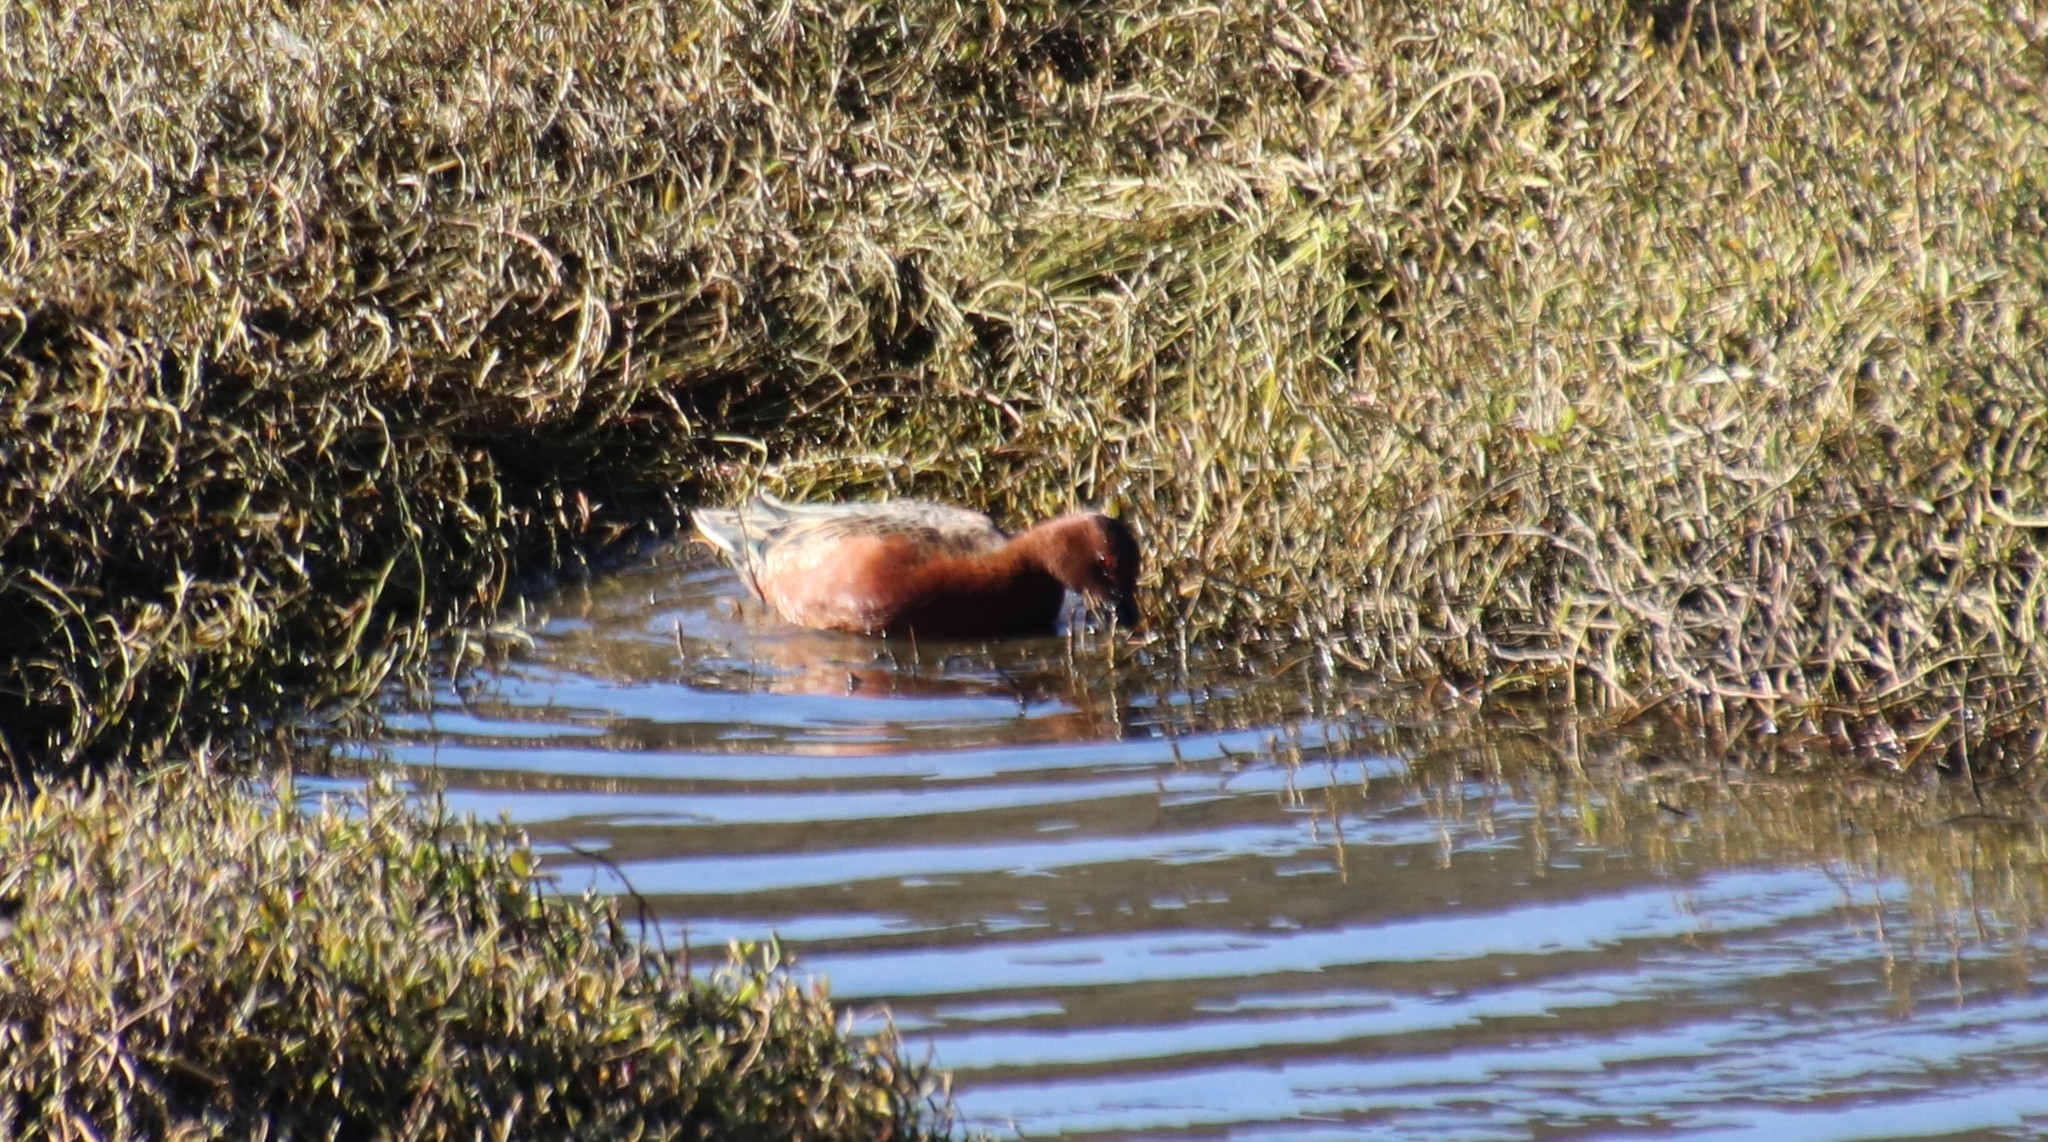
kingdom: Animalia
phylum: Chordata
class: Aves
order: Anseriformes
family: Anatidae
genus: Spatula
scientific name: Spatula cyanoptera
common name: Cinnamon teal
